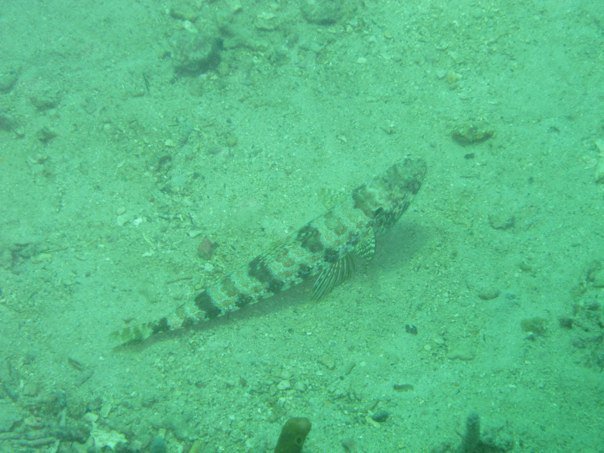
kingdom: Animalia
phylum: Chordata
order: Aulopiformes
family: Synodontidae
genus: Synodus
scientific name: Synodus intermedius
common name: Sand diver
